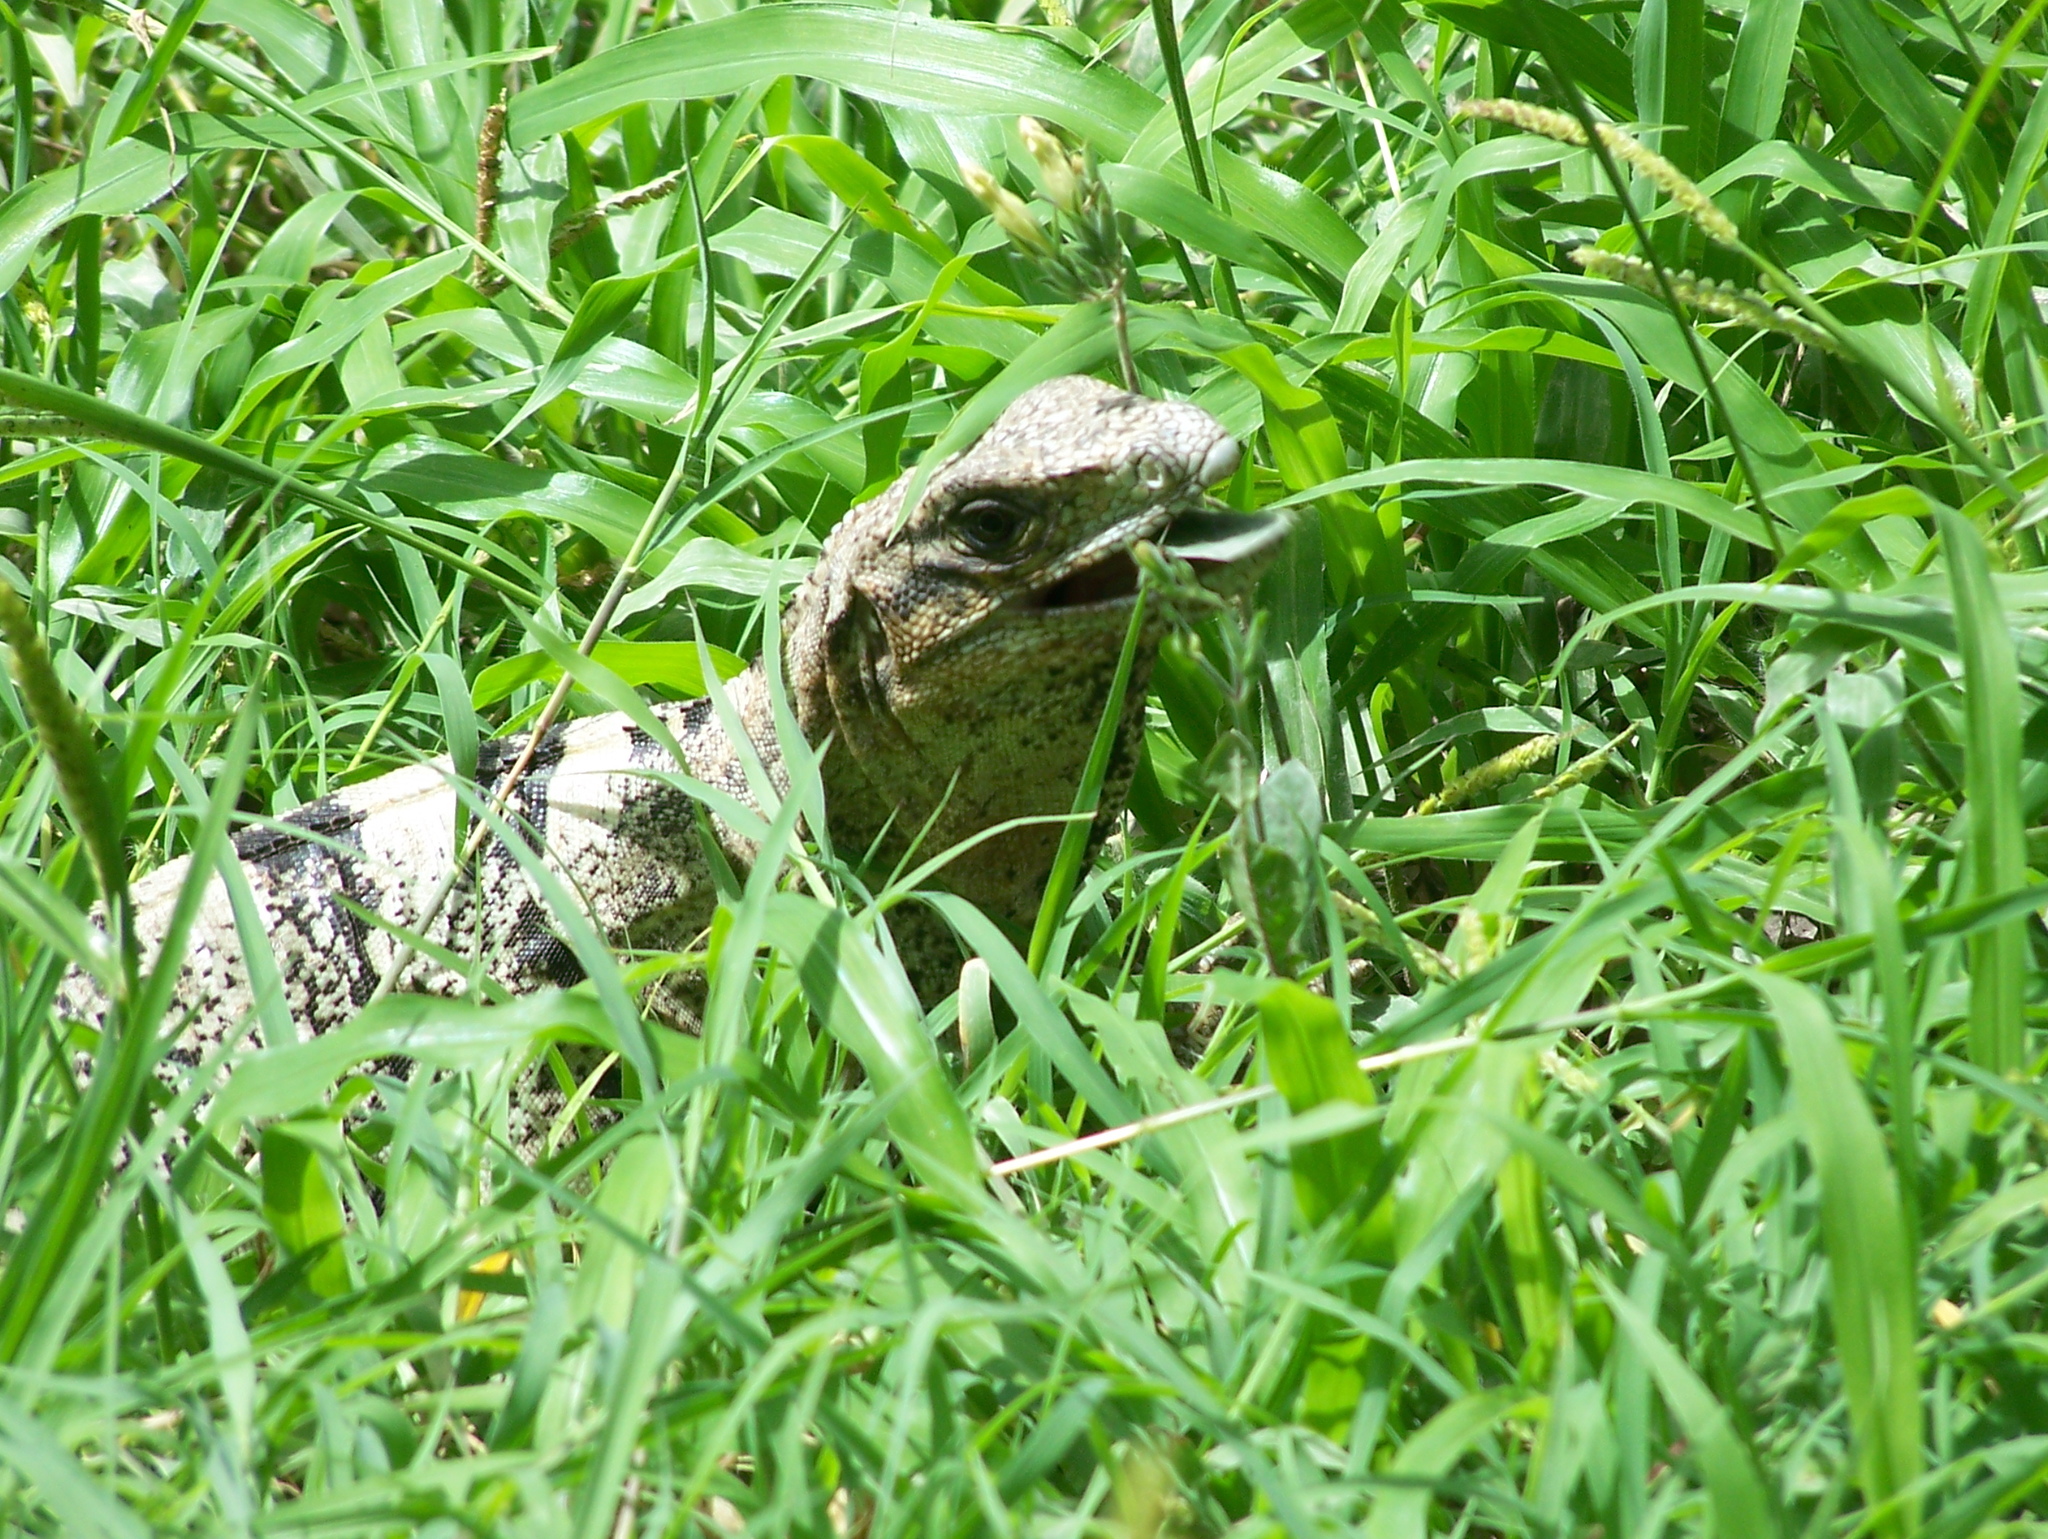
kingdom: Animalia
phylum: Chordata
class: Squamata
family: Iguanidae
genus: Ctenosaura
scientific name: Ctenosaura similis
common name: Black spiny-tailed iguana
